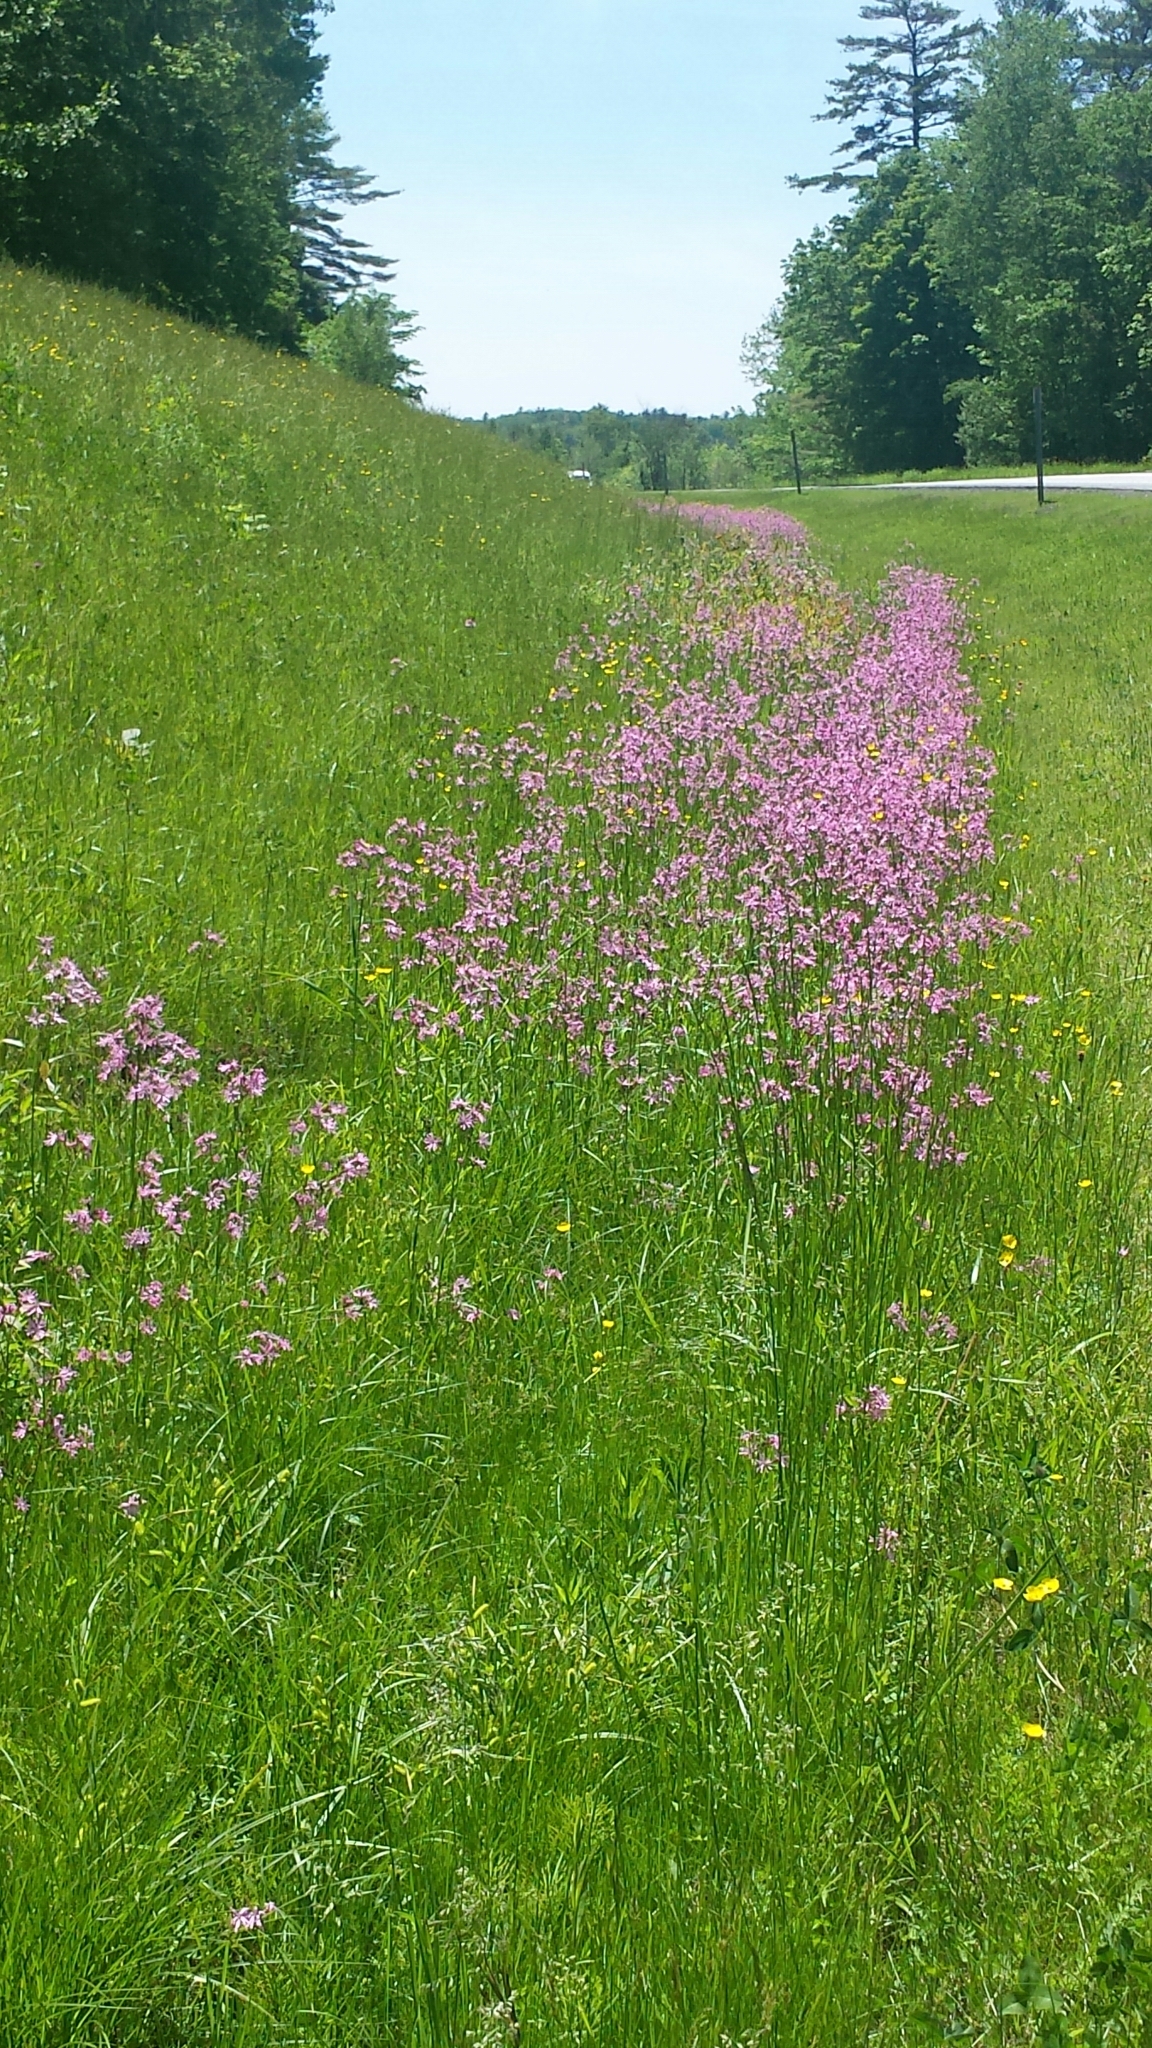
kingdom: Plantae
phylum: Tracheophyta
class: Magnoliopsida
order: Caryophyllales
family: Caryophyllaceae
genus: Silene
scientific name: Silene flos-cuculi
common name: Ragged-robin
